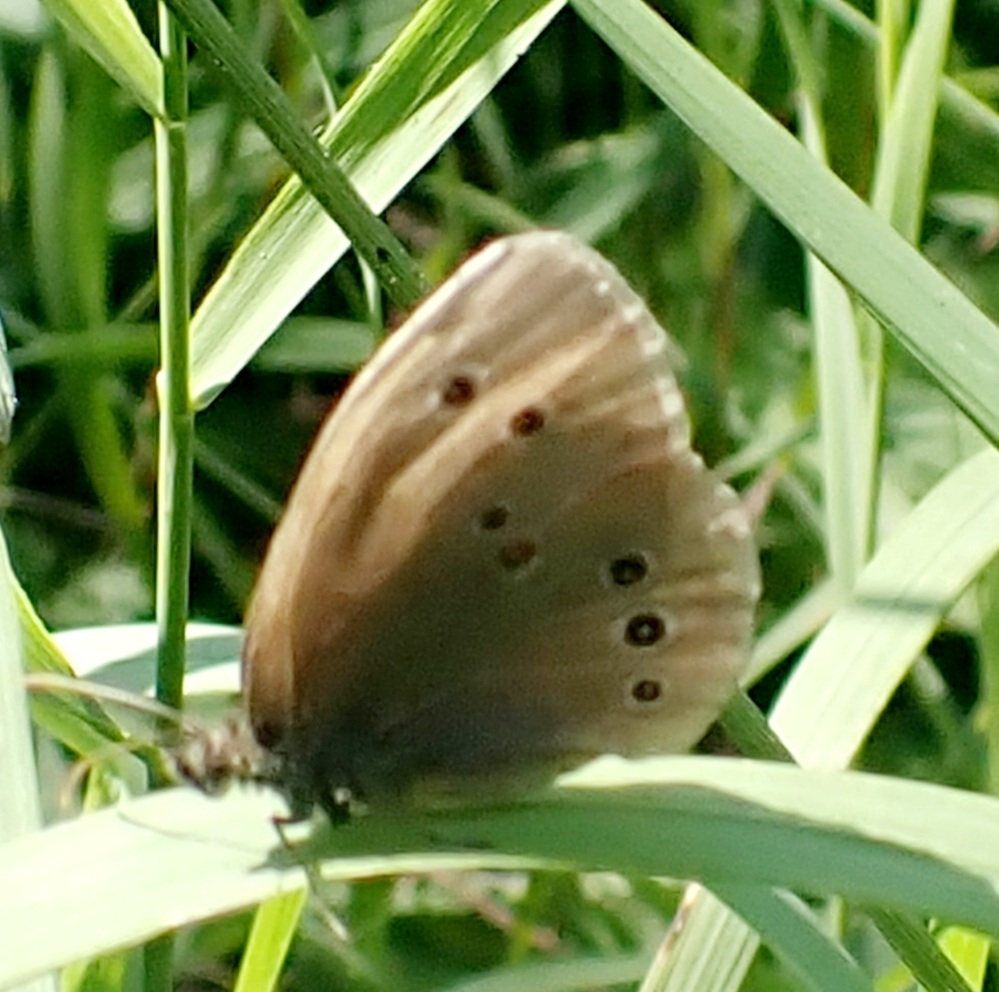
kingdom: Animalia
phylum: Arthropoda
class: Insecta
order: Lepidoptera
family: Nymphalidae
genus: Aphantopus
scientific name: Aphantopus hyperantus
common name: Ringlet
